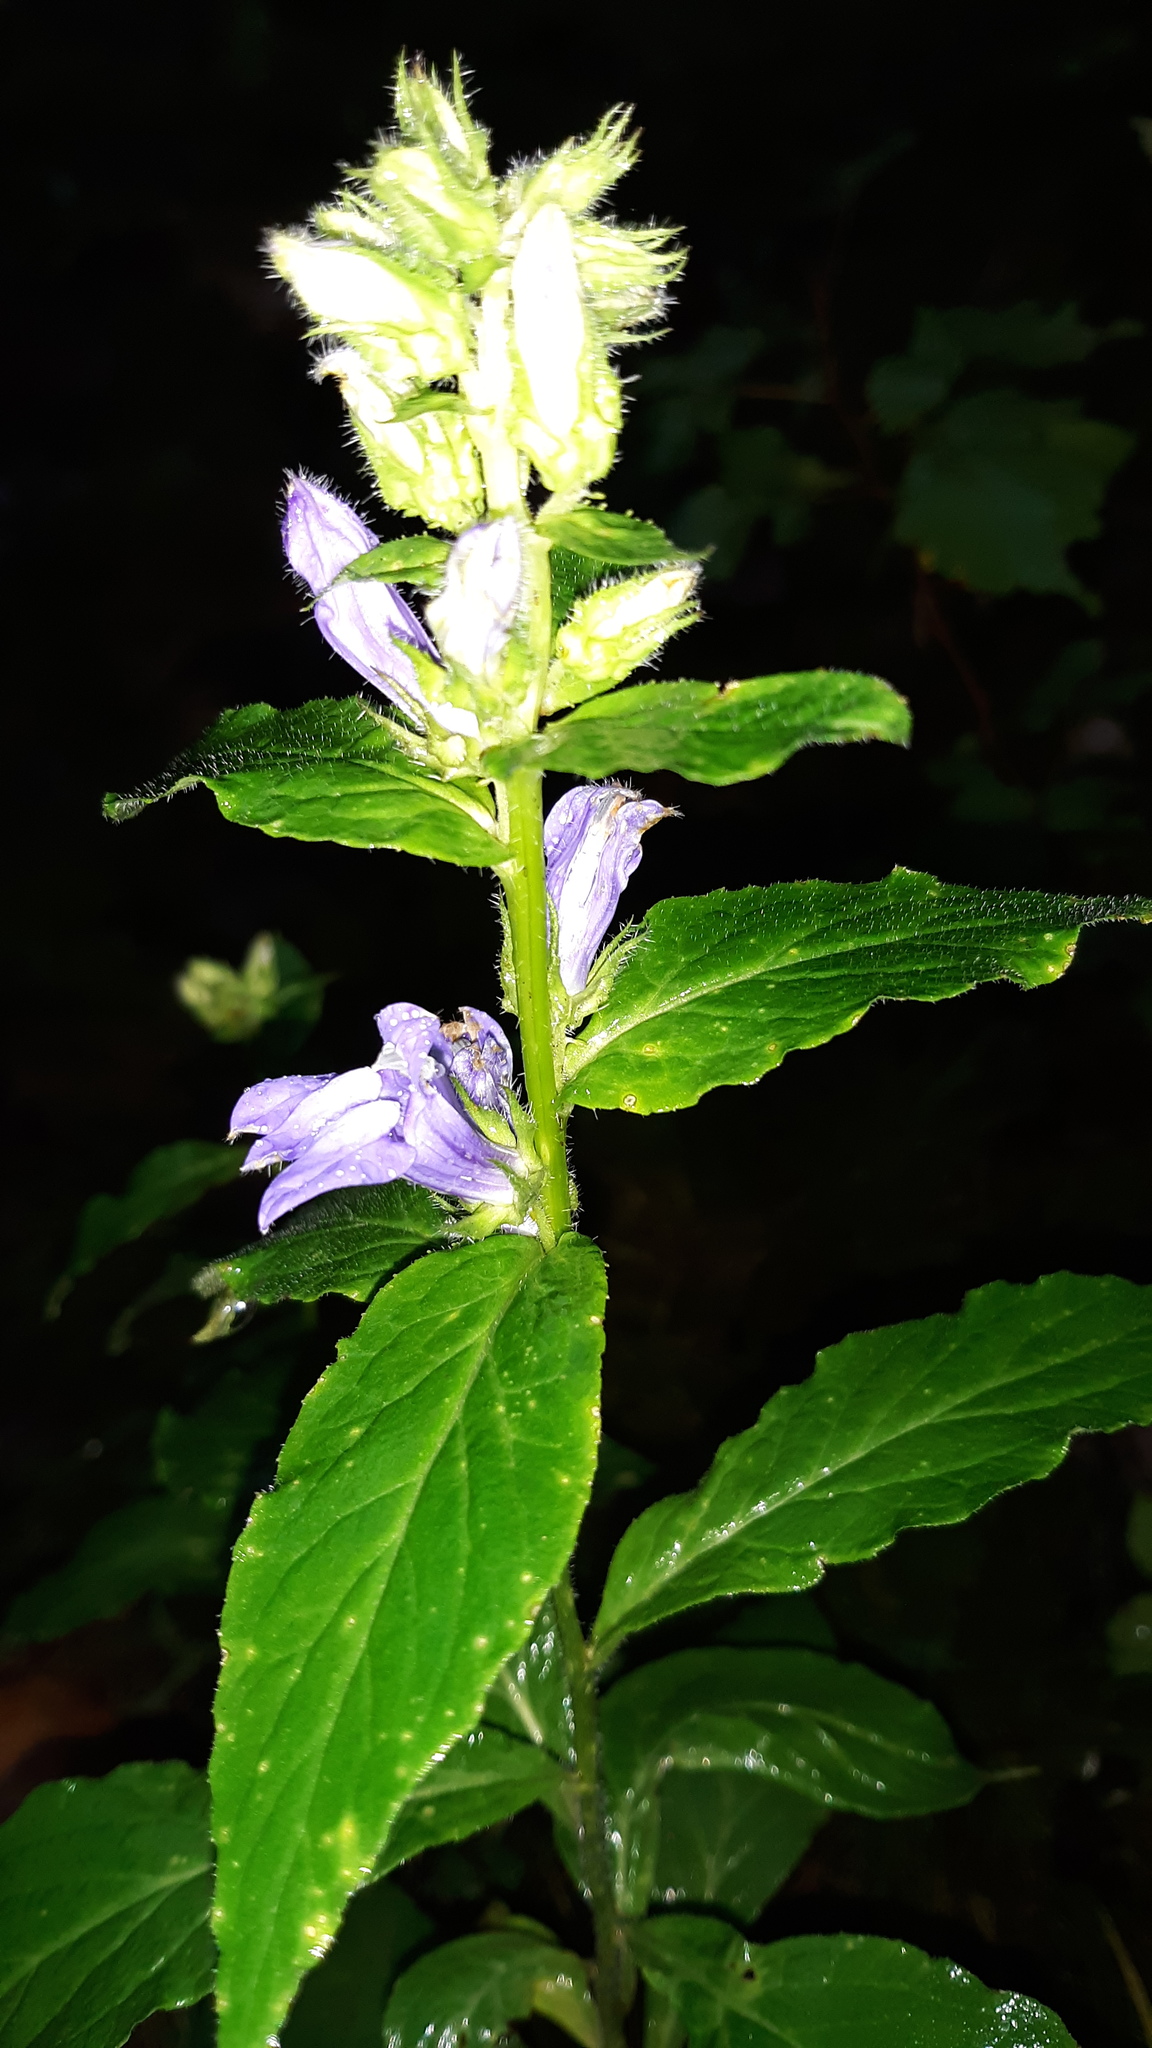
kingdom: Plantae
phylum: Tracheophyta
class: Magnoliopsida
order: Asterales
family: Campanulaceae
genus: Lobelia
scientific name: Lobelia siphilitica
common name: Great lobelia
